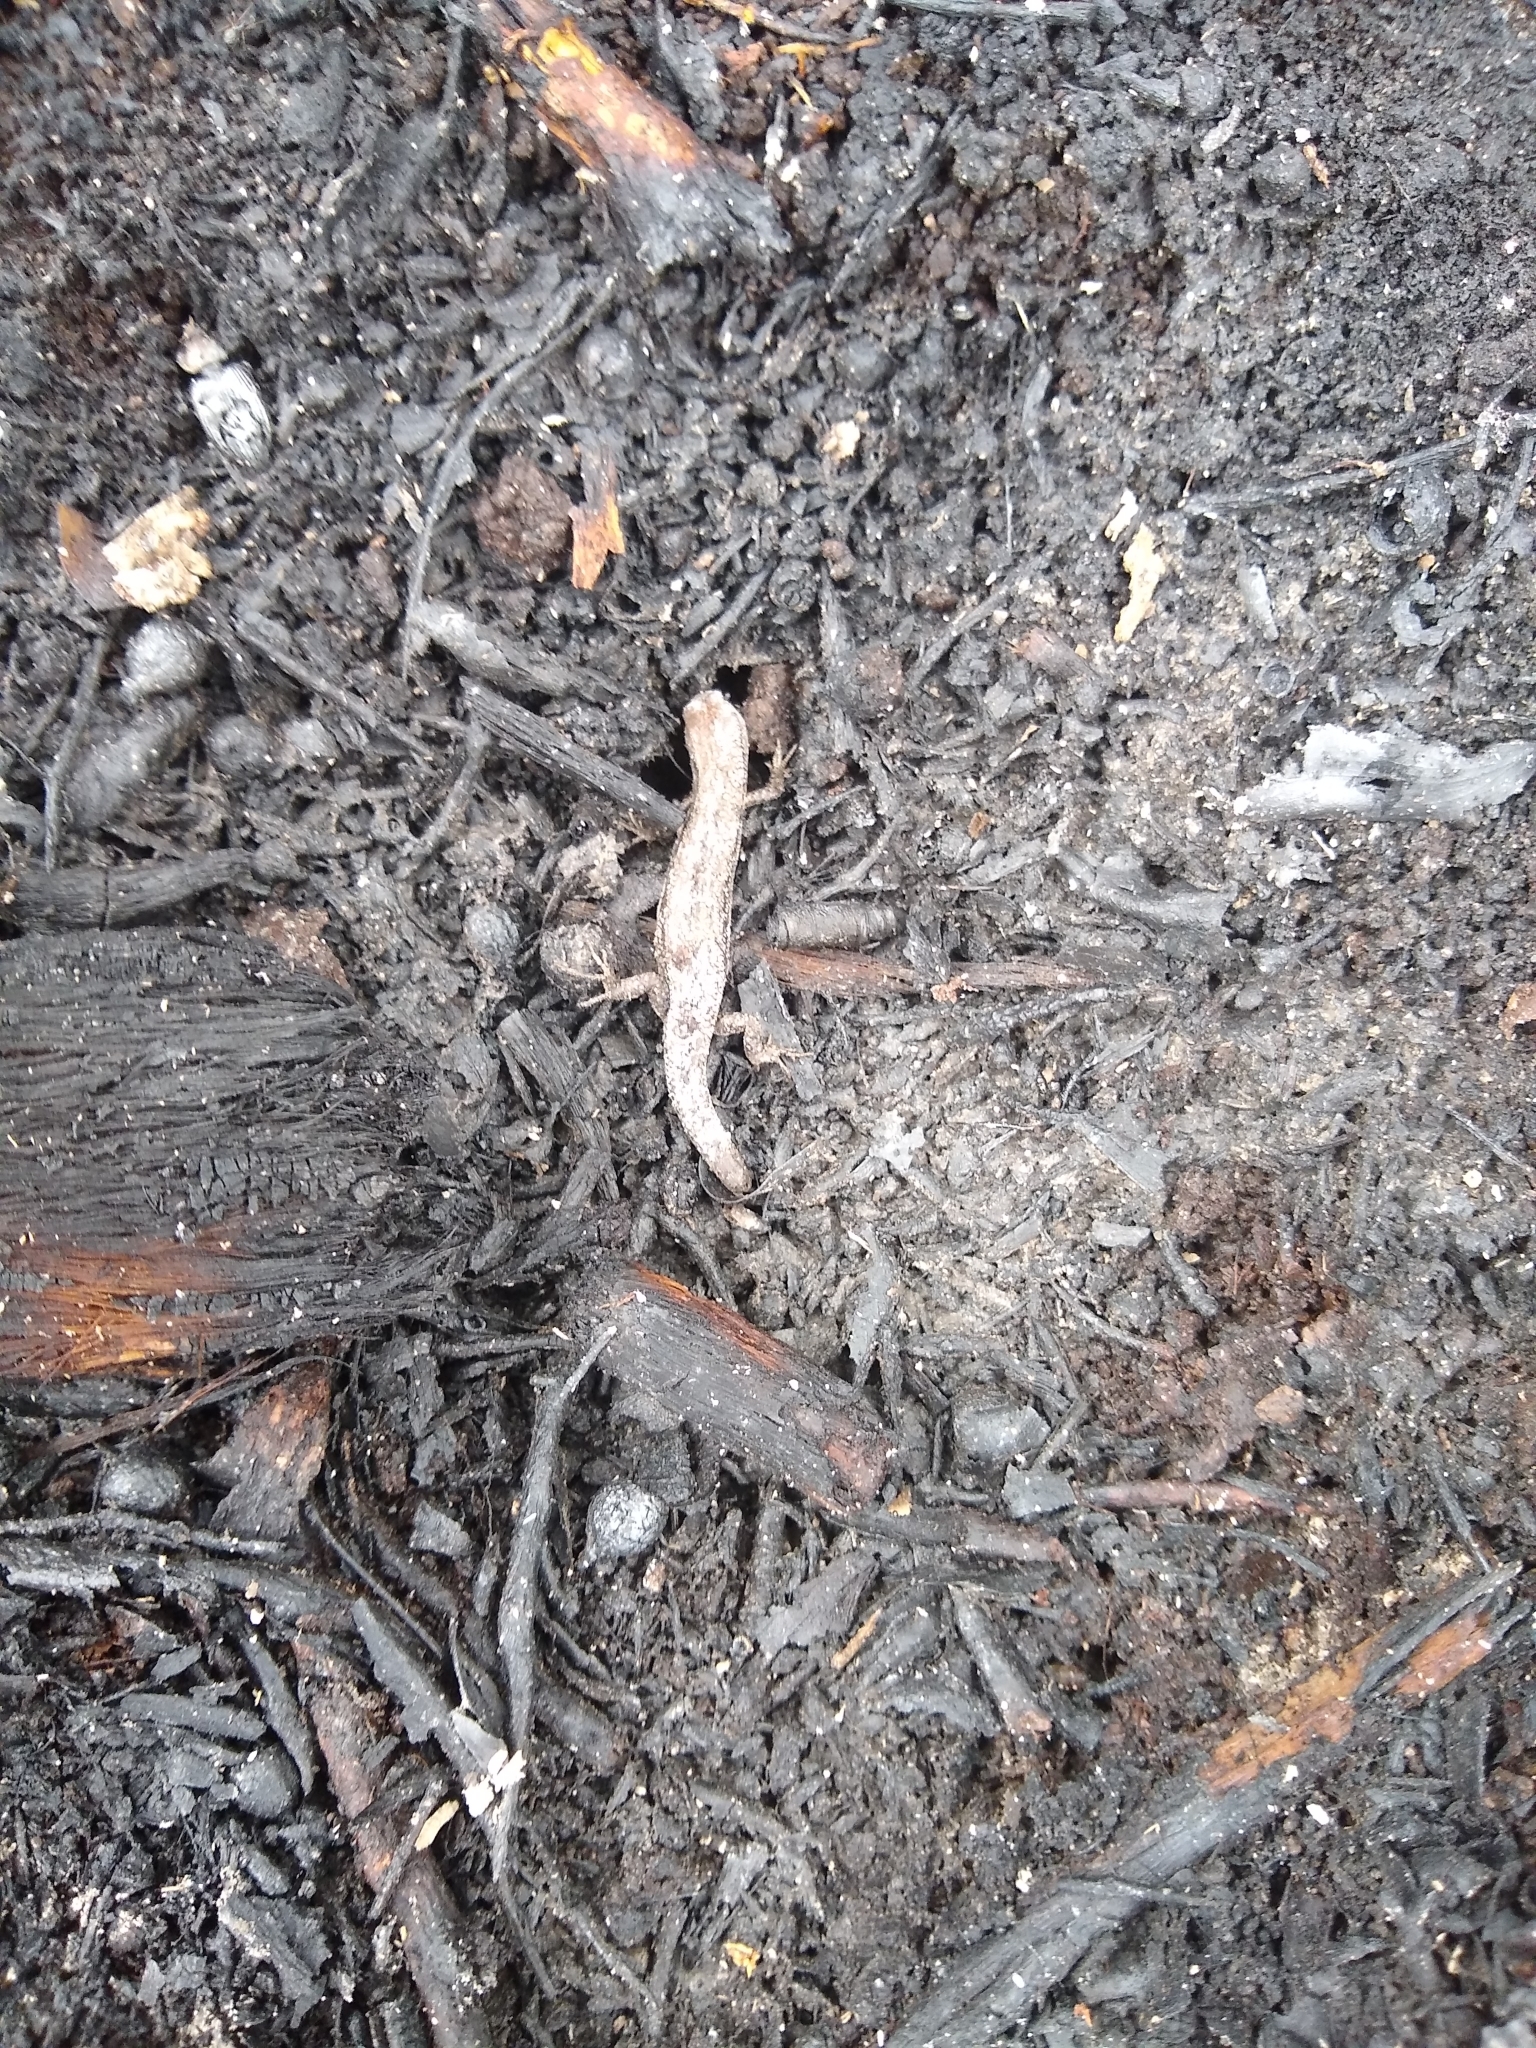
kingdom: Animalia
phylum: Chordata
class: Squamata
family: Scincidae
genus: Lampropholis
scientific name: Lampropholis guichenoti
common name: Garden skink
